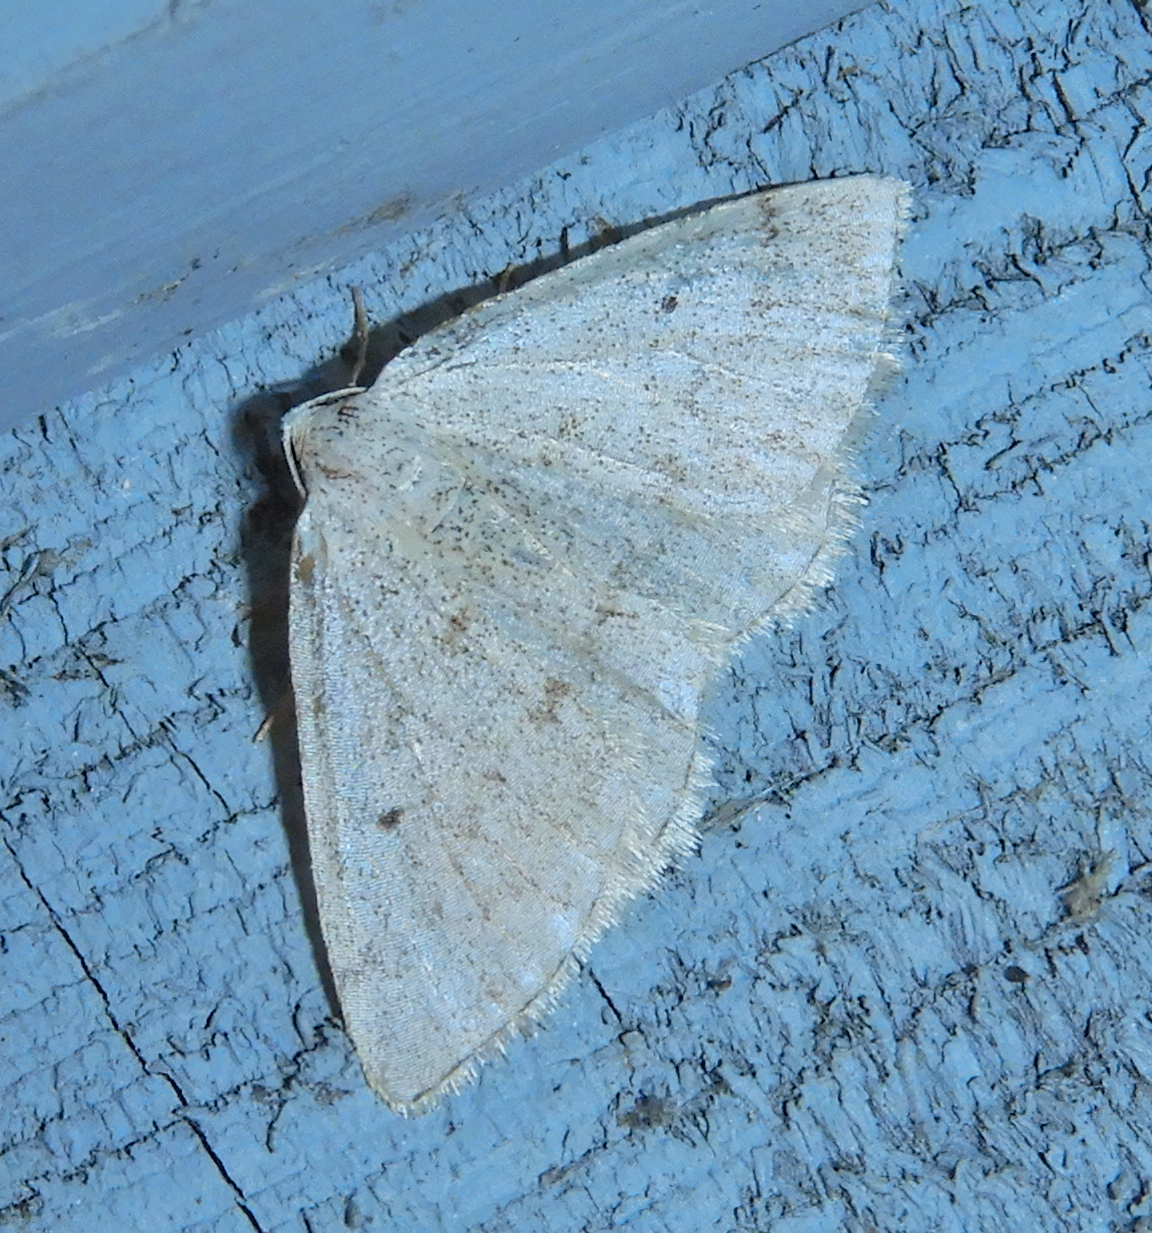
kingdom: Animalia
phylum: Arthropoda
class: Insecta
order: Lepidoptera
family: Geometridae
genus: Lomographa
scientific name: Lomographa glomeraria
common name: Gray spring moth
